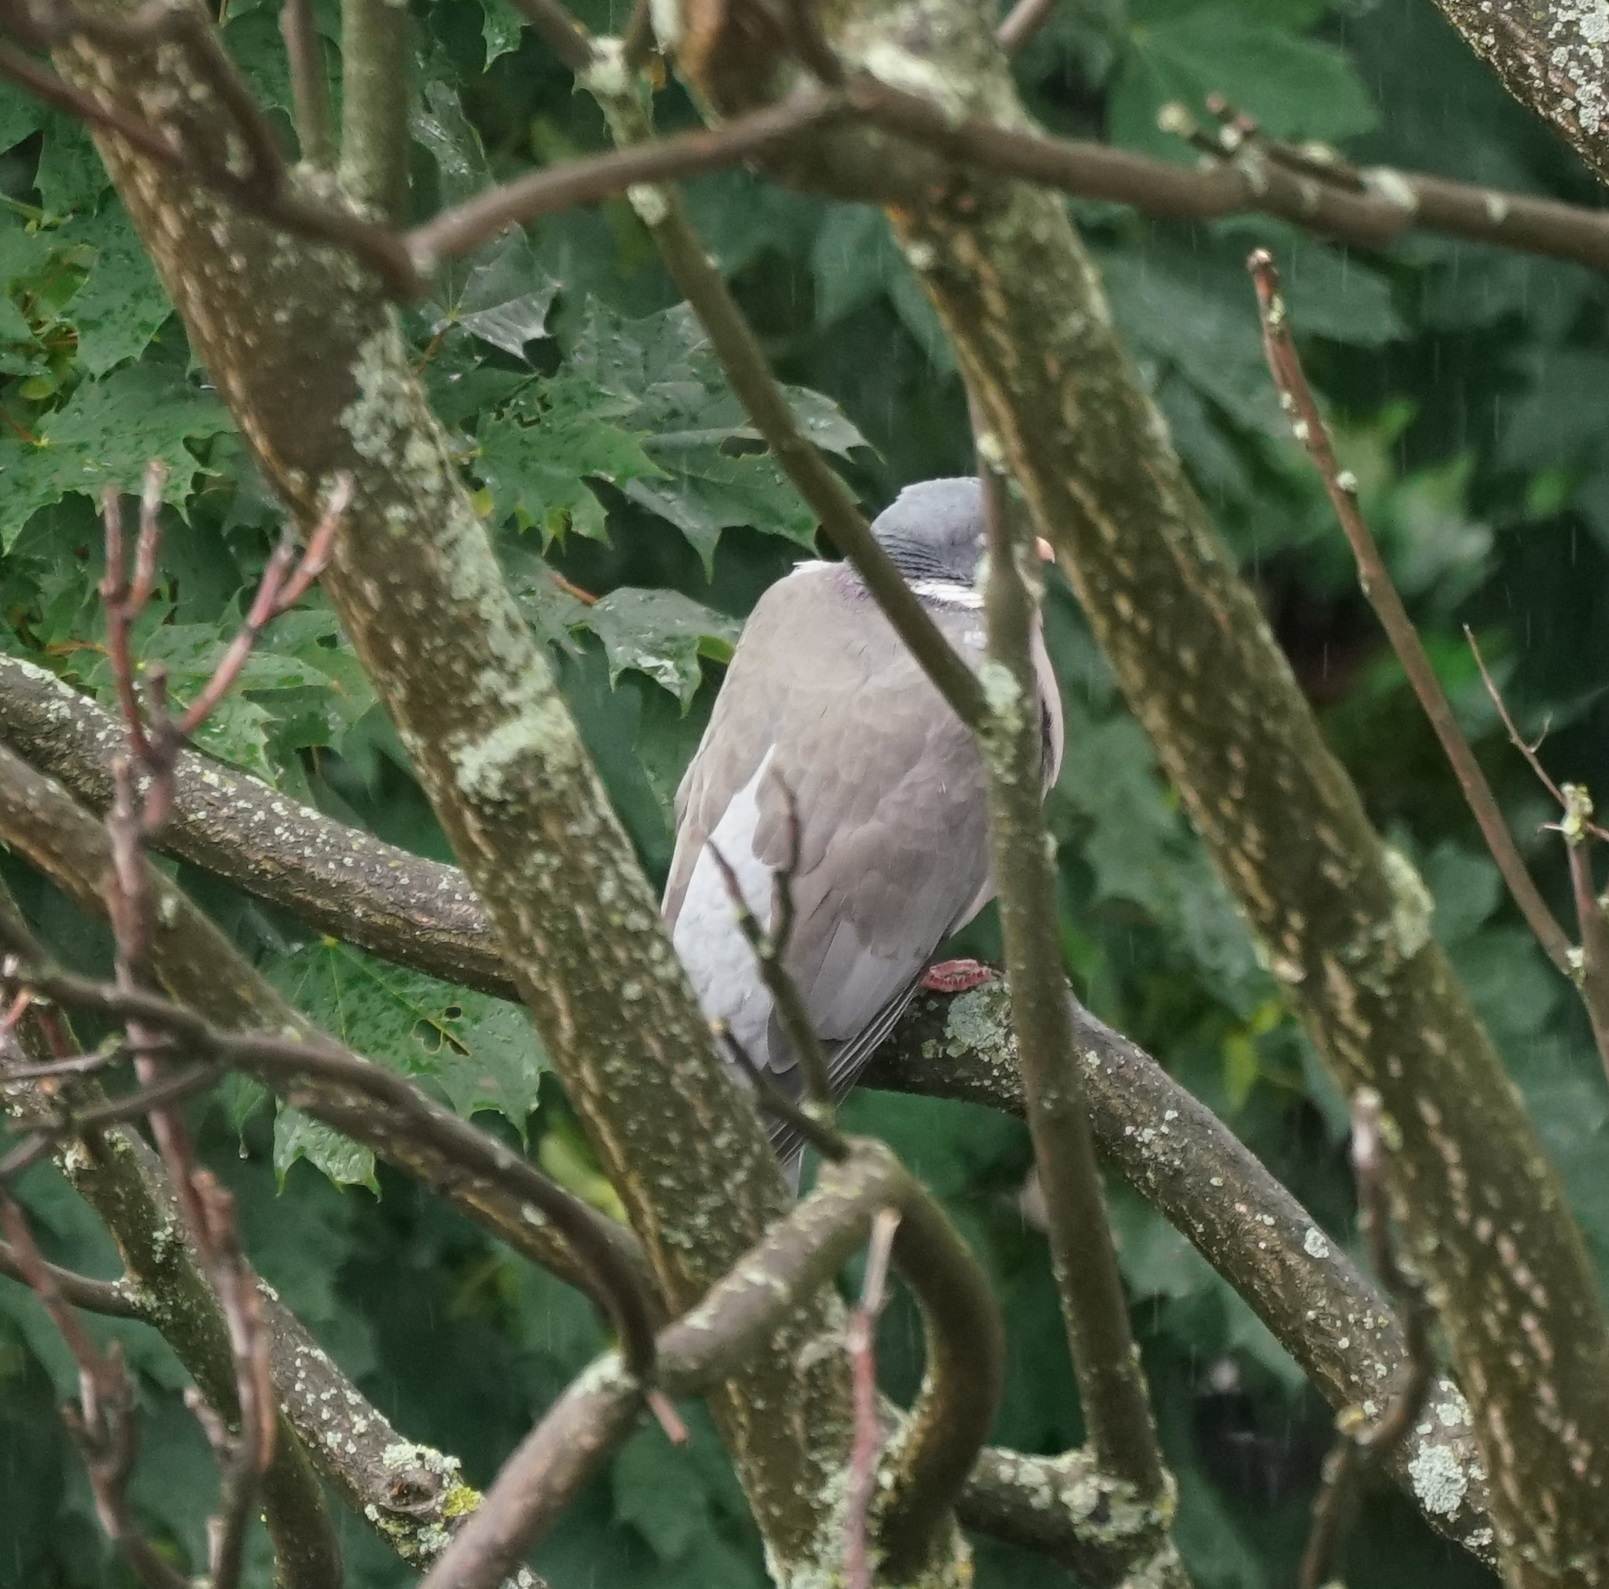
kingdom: Animalia
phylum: Chordata
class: Aves
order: Columbiformes
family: Columbidae
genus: Columba
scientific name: Columba palumbus
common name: Common wood pigeon
